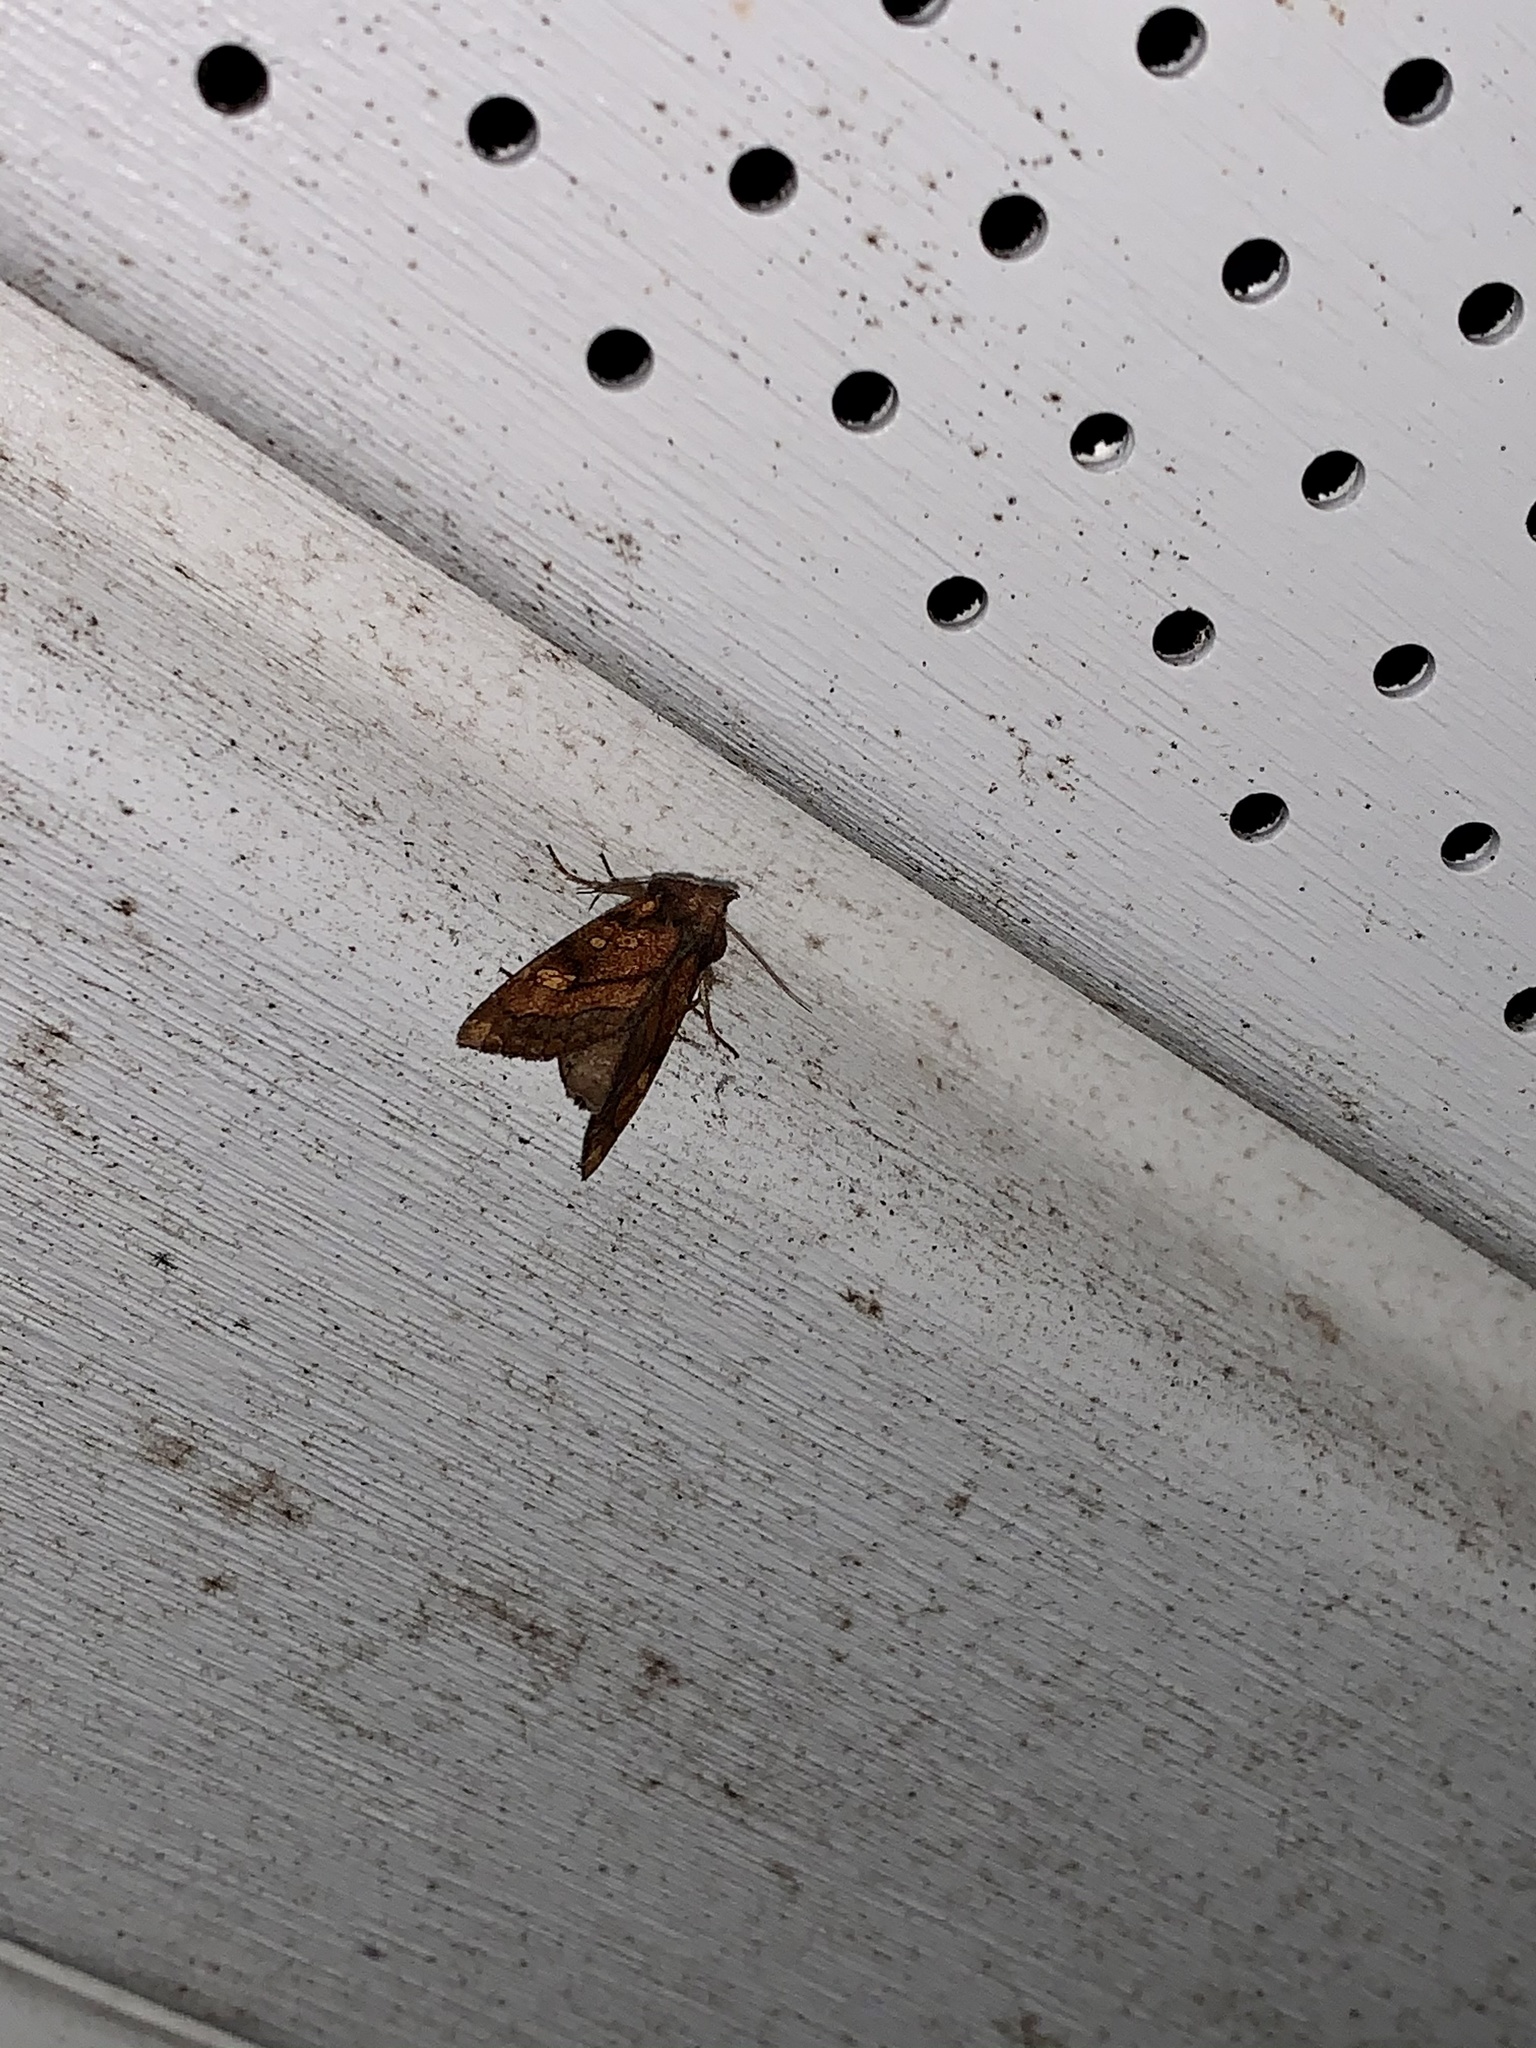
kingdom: Animalia
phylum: Arthropoda
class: Insecta
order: Lepidoptera
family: Noctuidae
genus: Argyrogramma
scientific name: Argyrogramma verruca
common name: Golden looper moth
